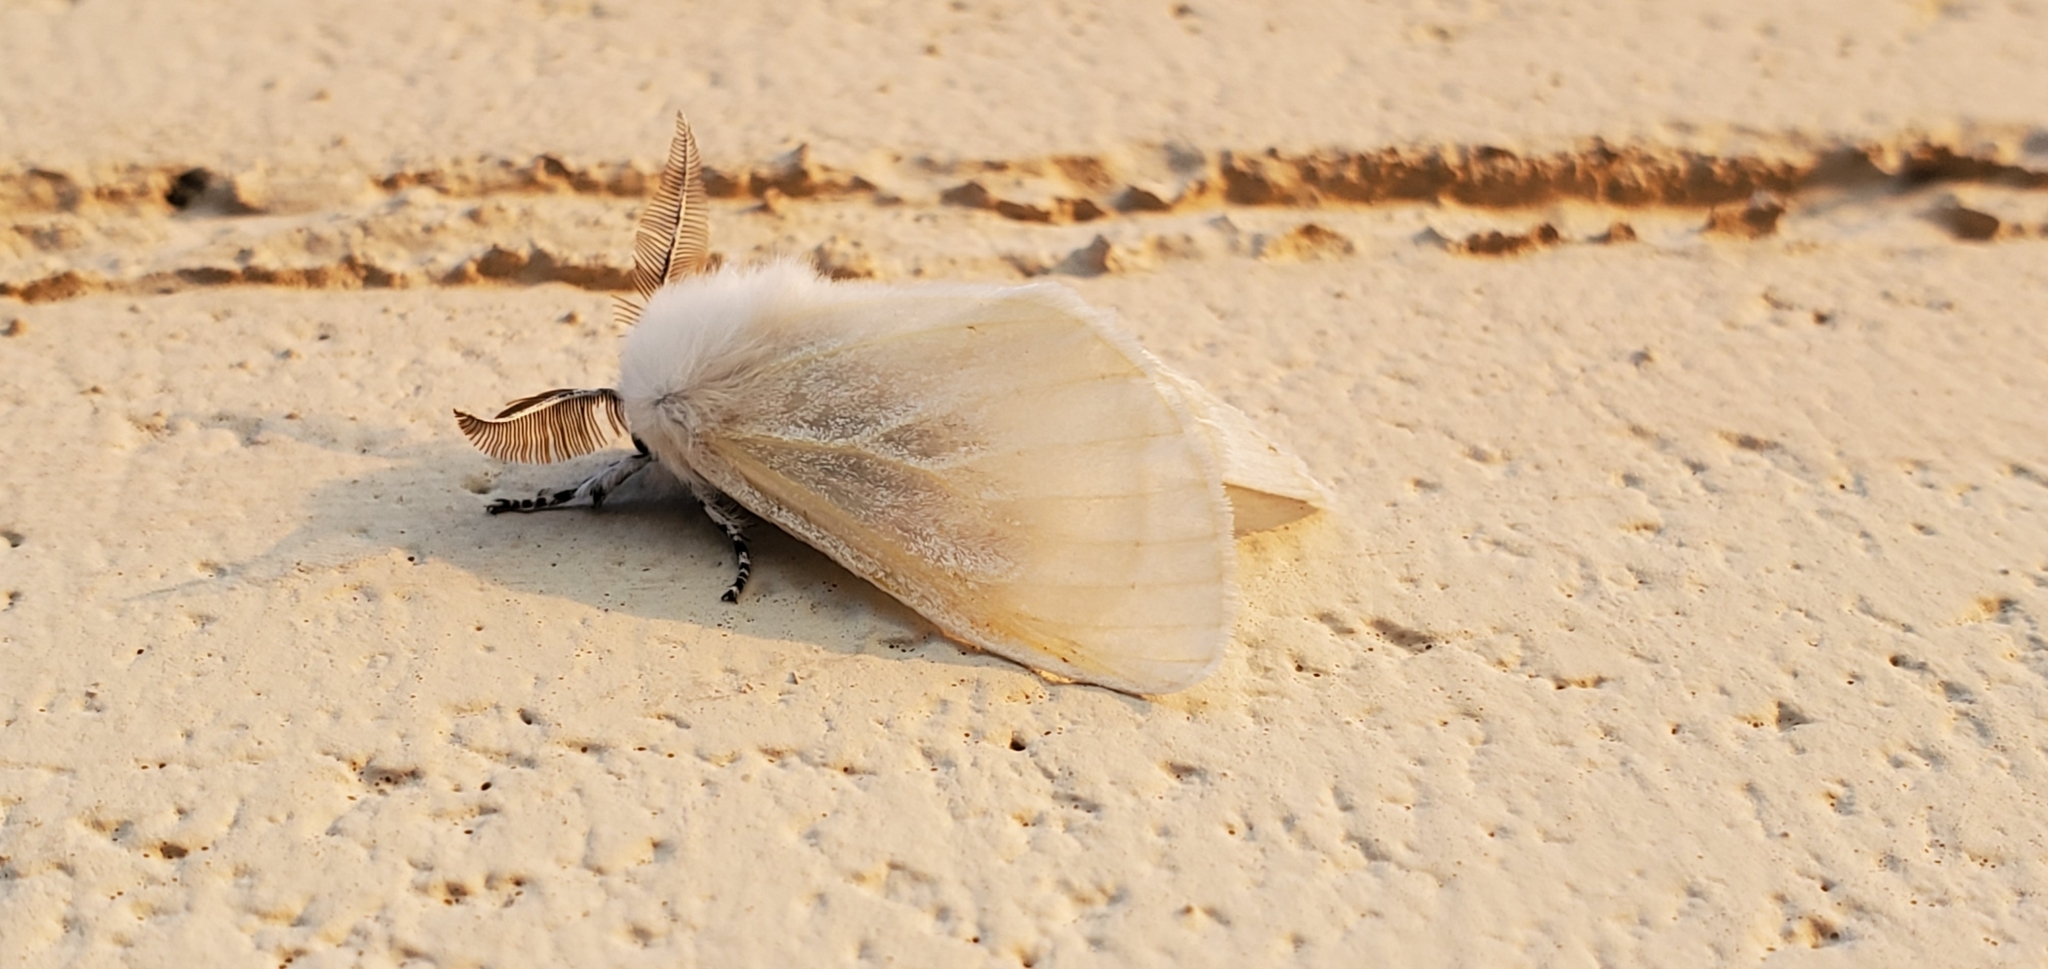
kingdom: Animalia
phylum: Arthropoda
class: Insecta
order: Lepidoptera
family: Erebidae
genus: Leucoma
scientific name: Leucoma salicis
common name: White satin moth
